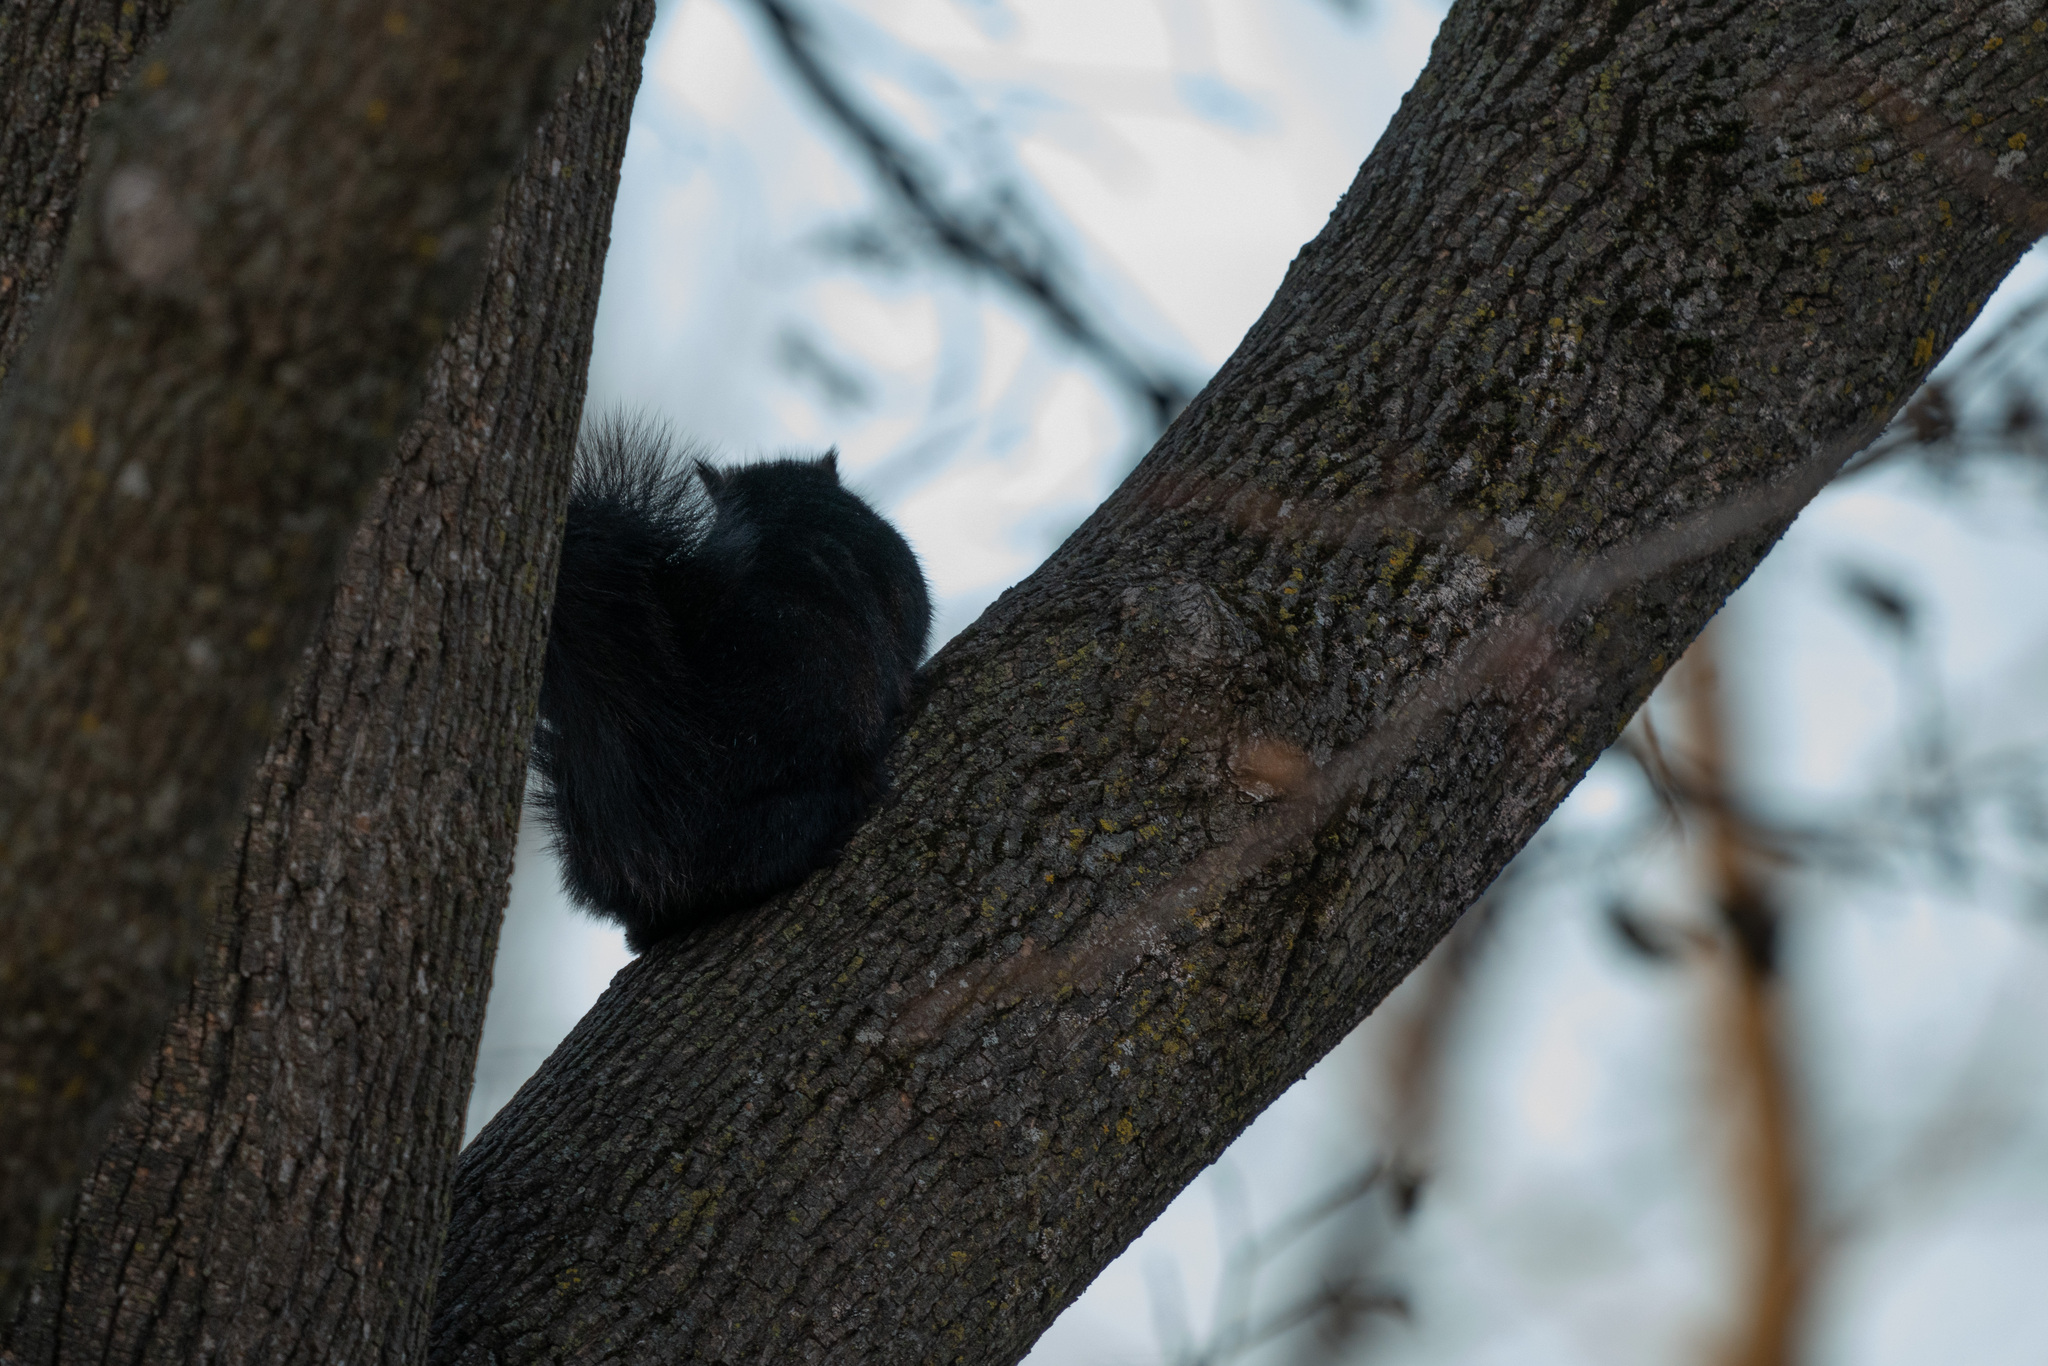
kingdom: Animalia
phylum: Chordata
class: Mammalia
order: Rodentia
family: Sciuridae
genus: Sciurus
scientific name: Sciurus carolinensis
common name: Eastern gray squirrel
